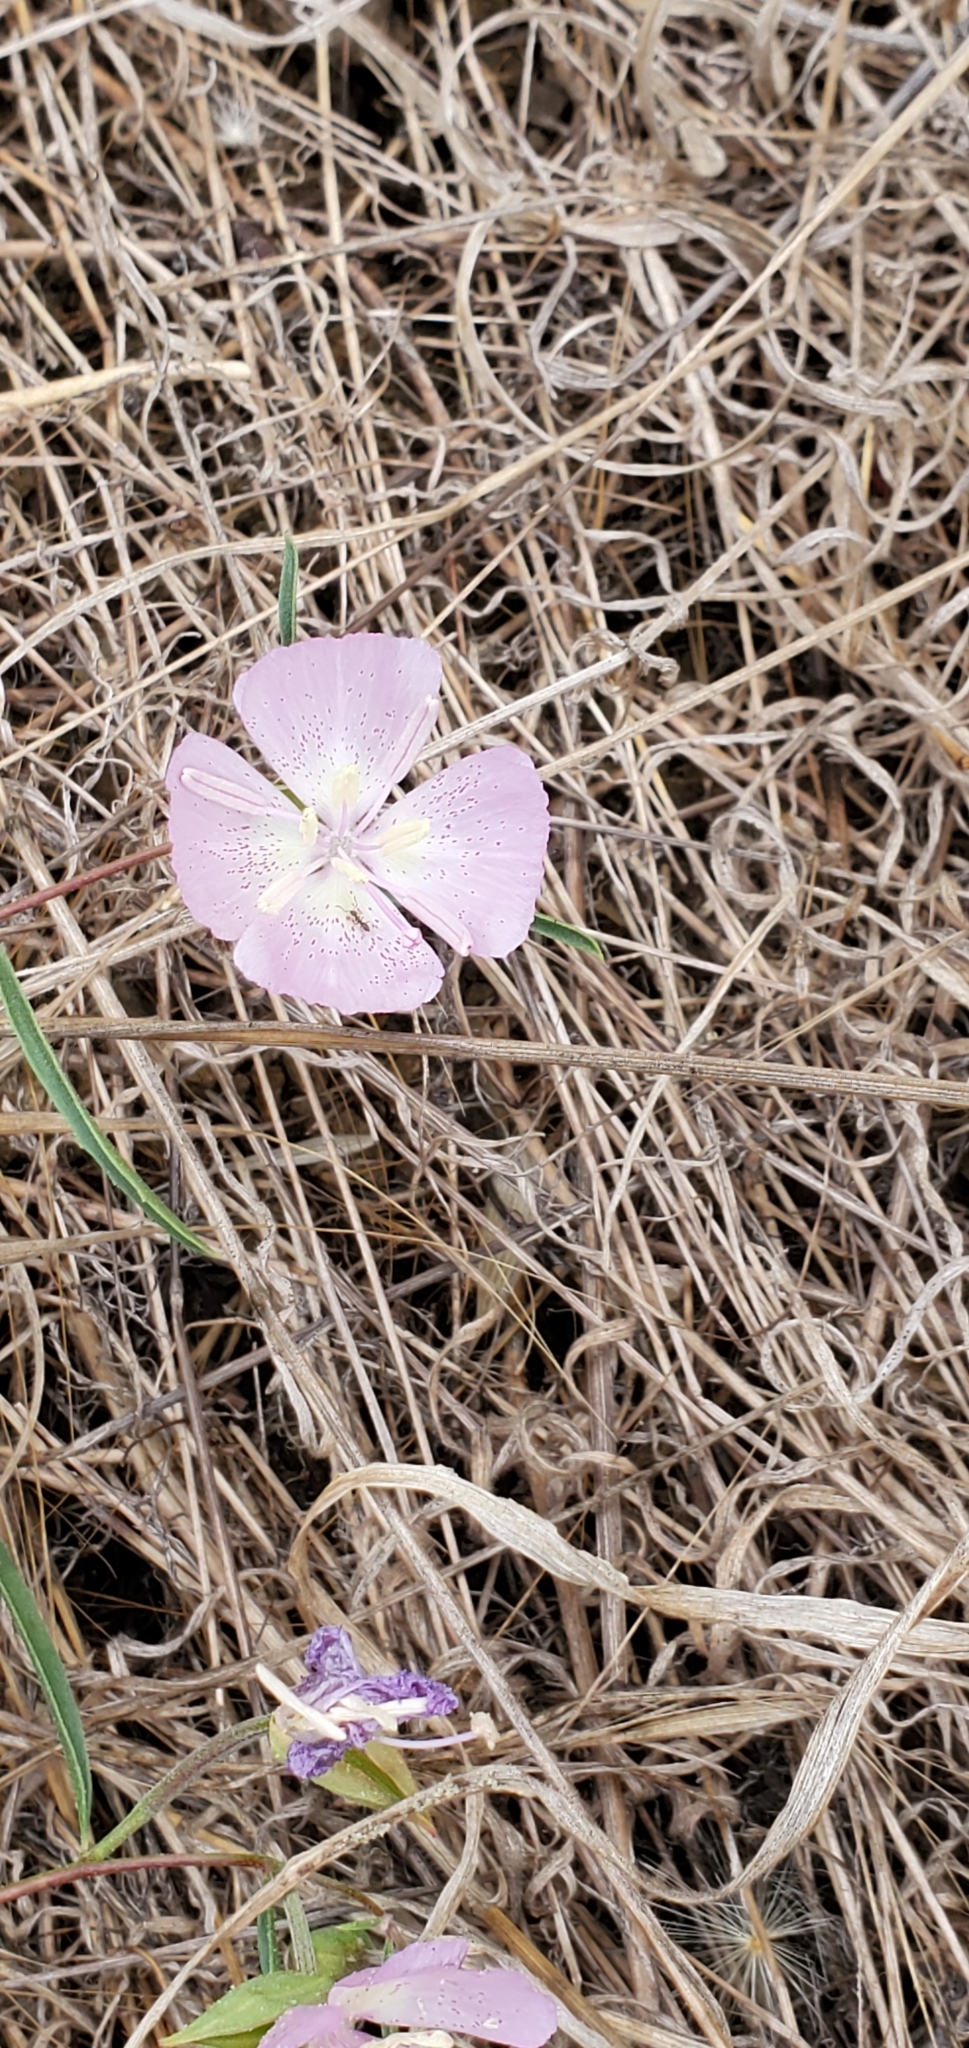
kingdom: Plantae
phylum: Tracheophyta
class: Magnoliopsida
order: Myrtales
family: Onagraceae
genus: Clarkia
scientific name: Clarkia bottae
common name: Punch-bowl godetia
